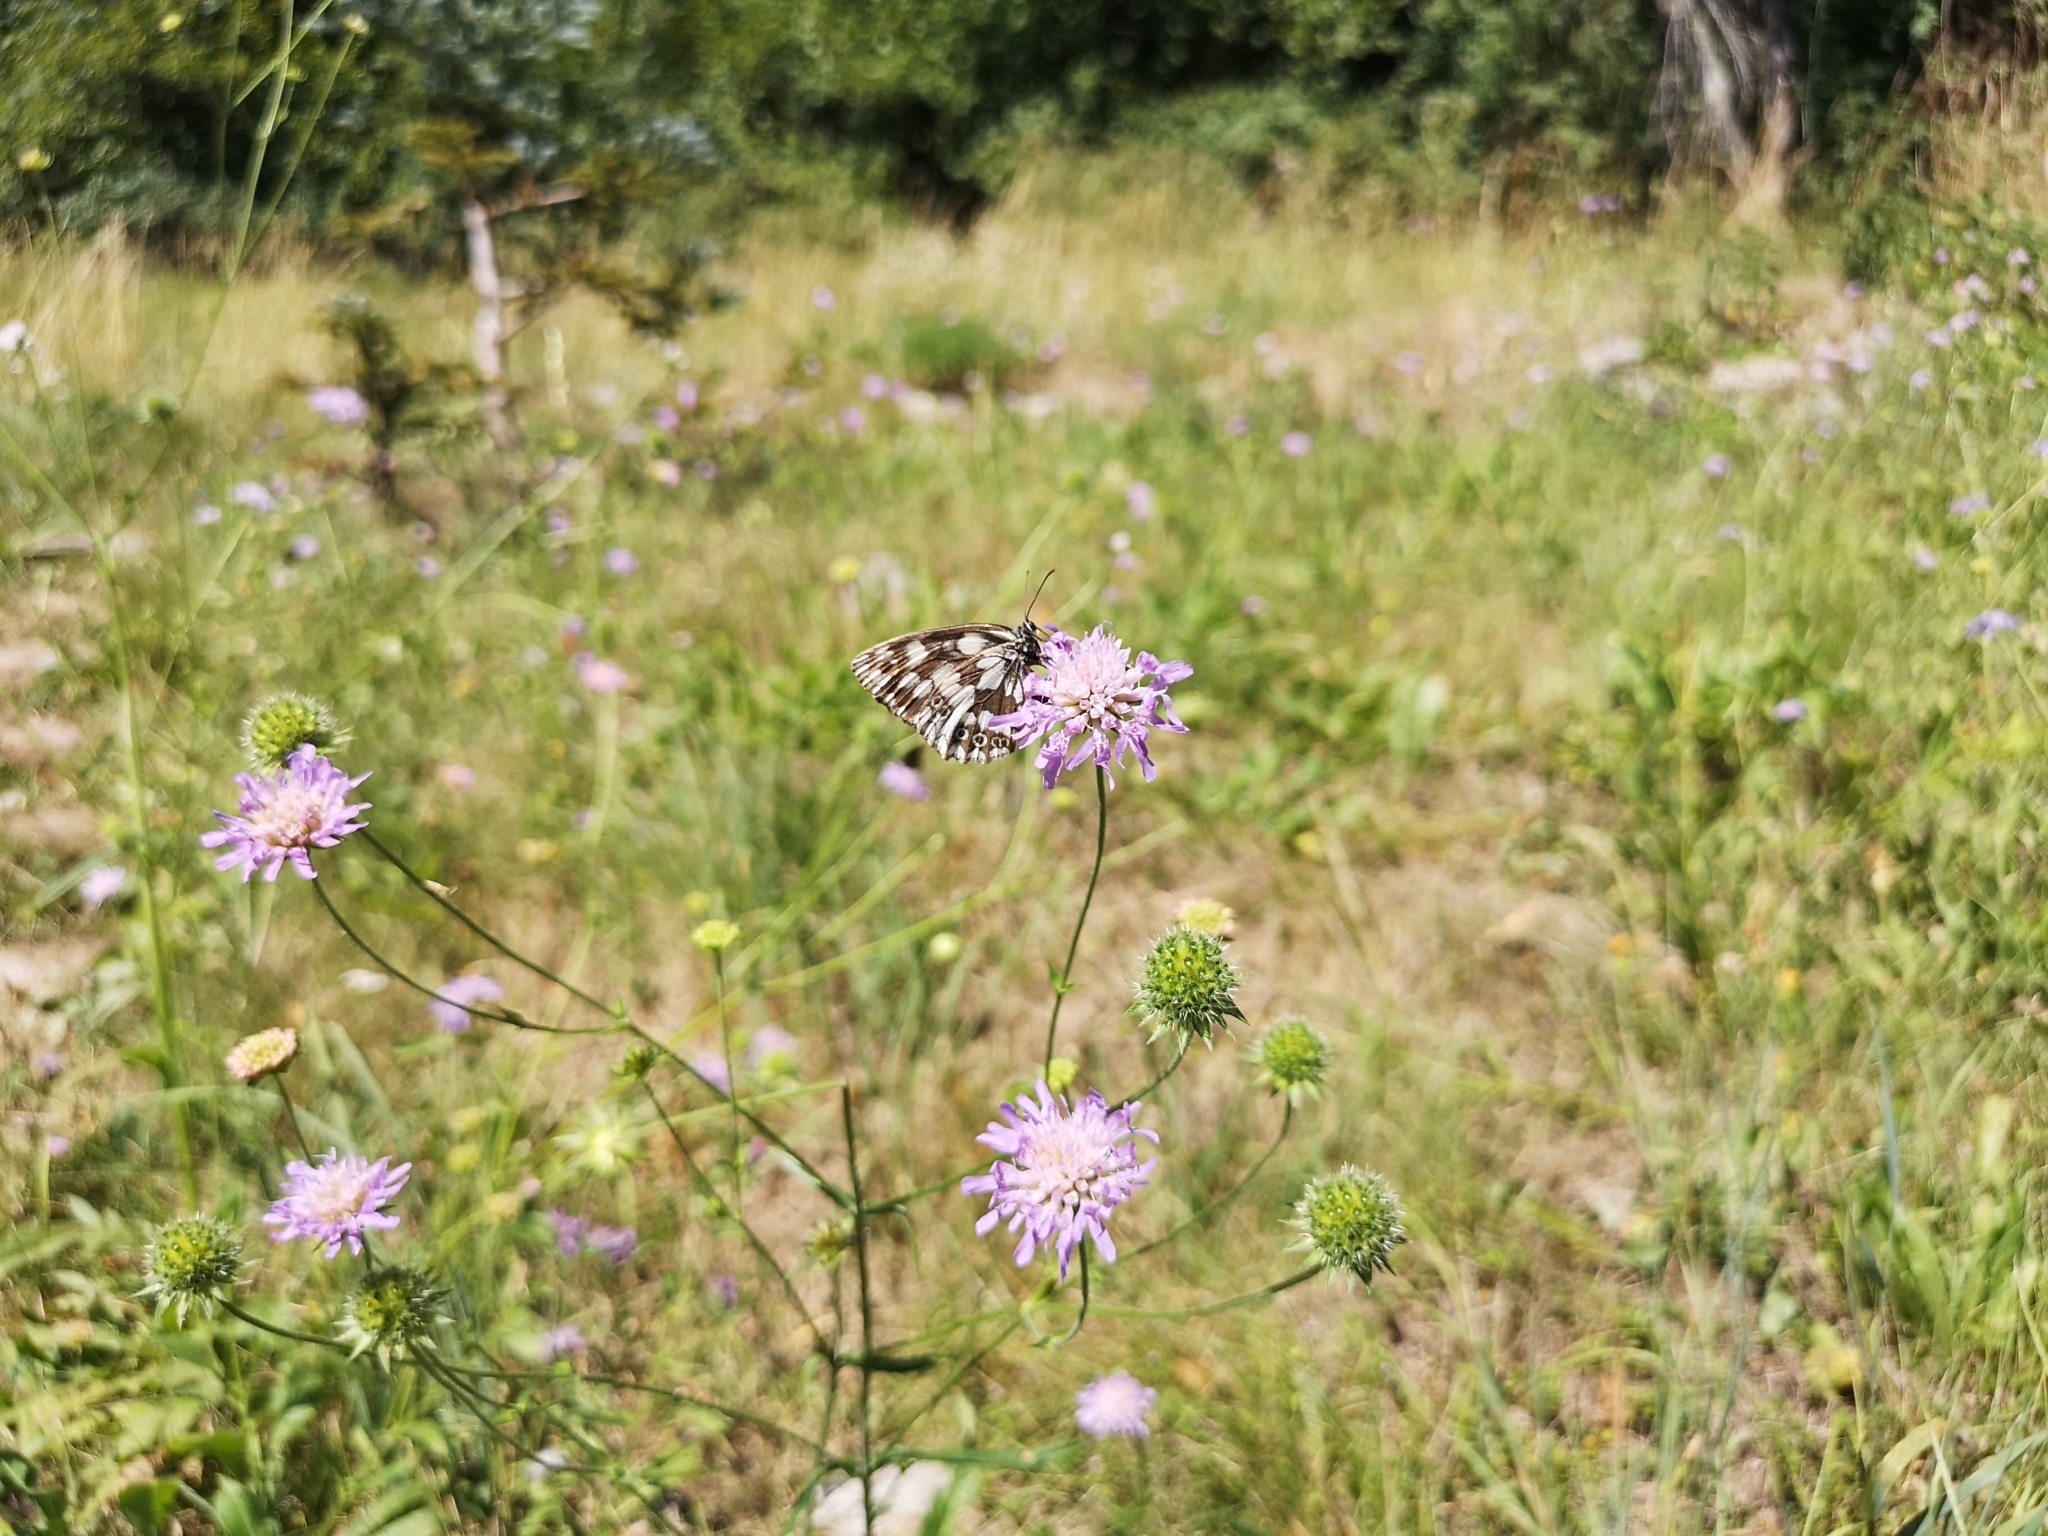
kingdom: Plantae
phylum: Tracheophyta
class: Magnoliopsida
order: Dipsacales
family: Caprifoliaceae
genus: Knautia
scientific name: Knautia arvensis
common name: Field scabiosa
